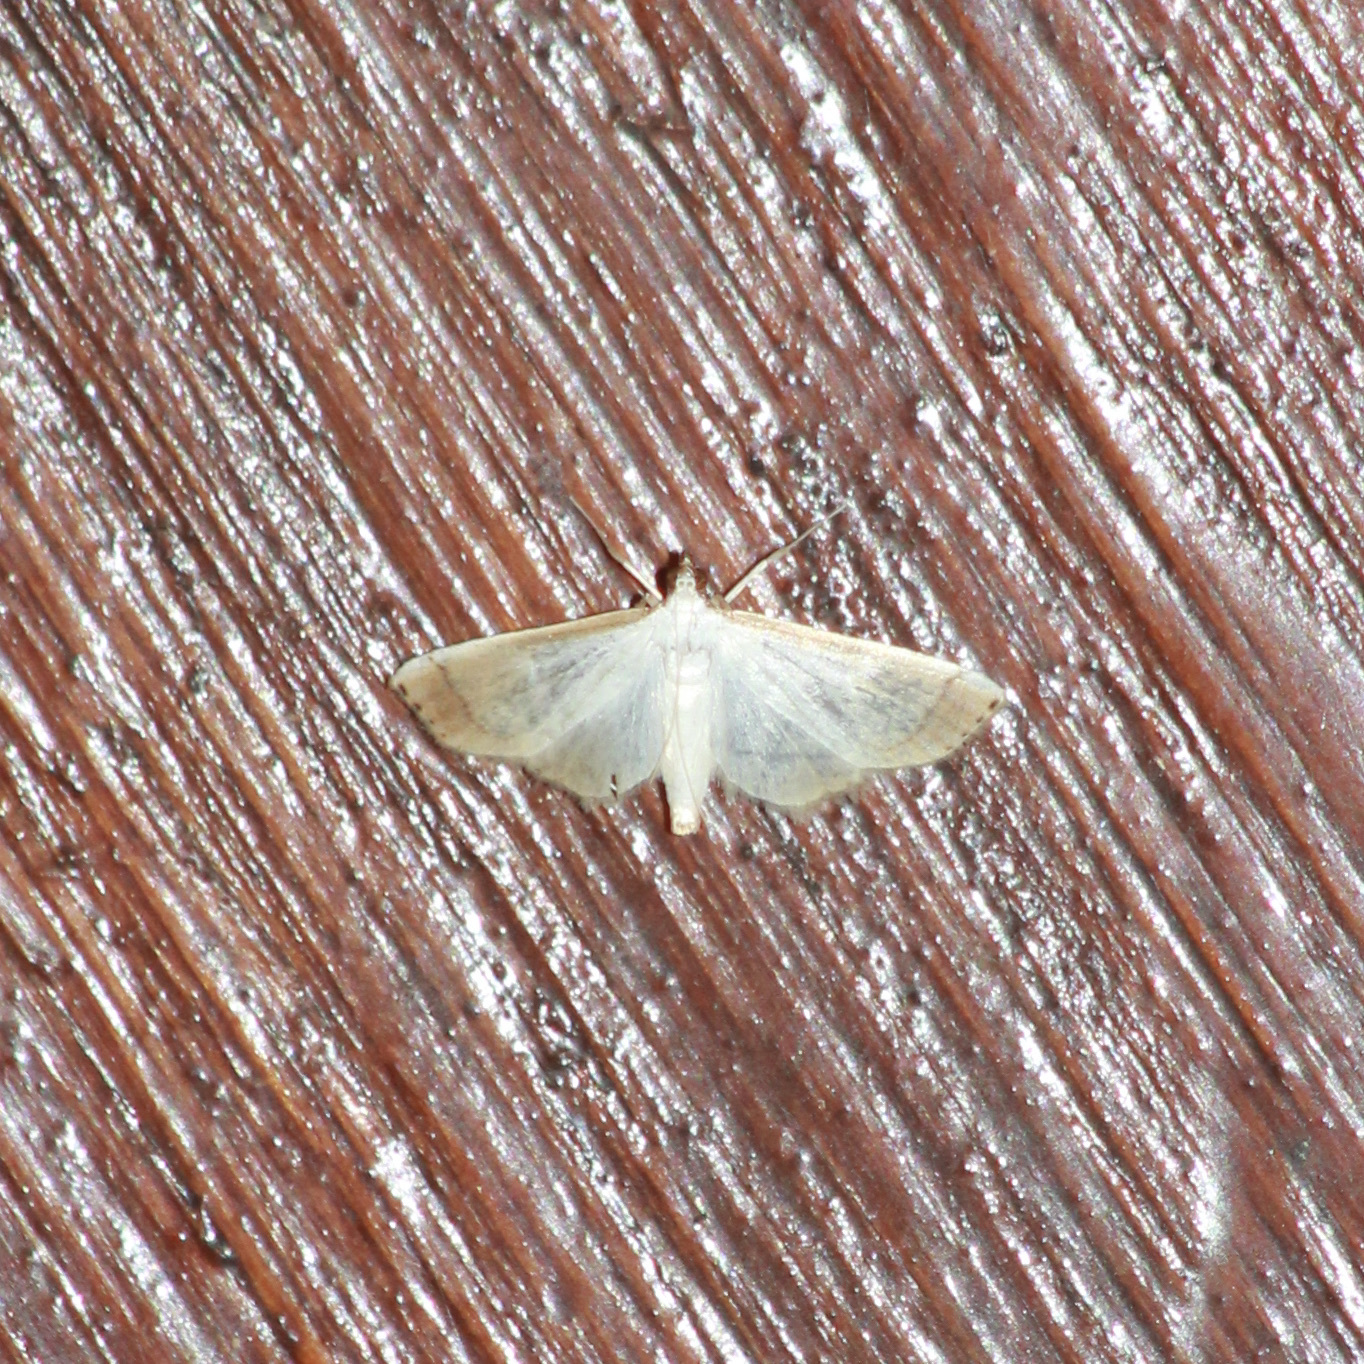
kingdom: Animalia
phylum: Arthropoda
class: Insecta
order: Lepidoptera
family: Crambidae
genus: Stenia
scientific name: Stenia saurialis
